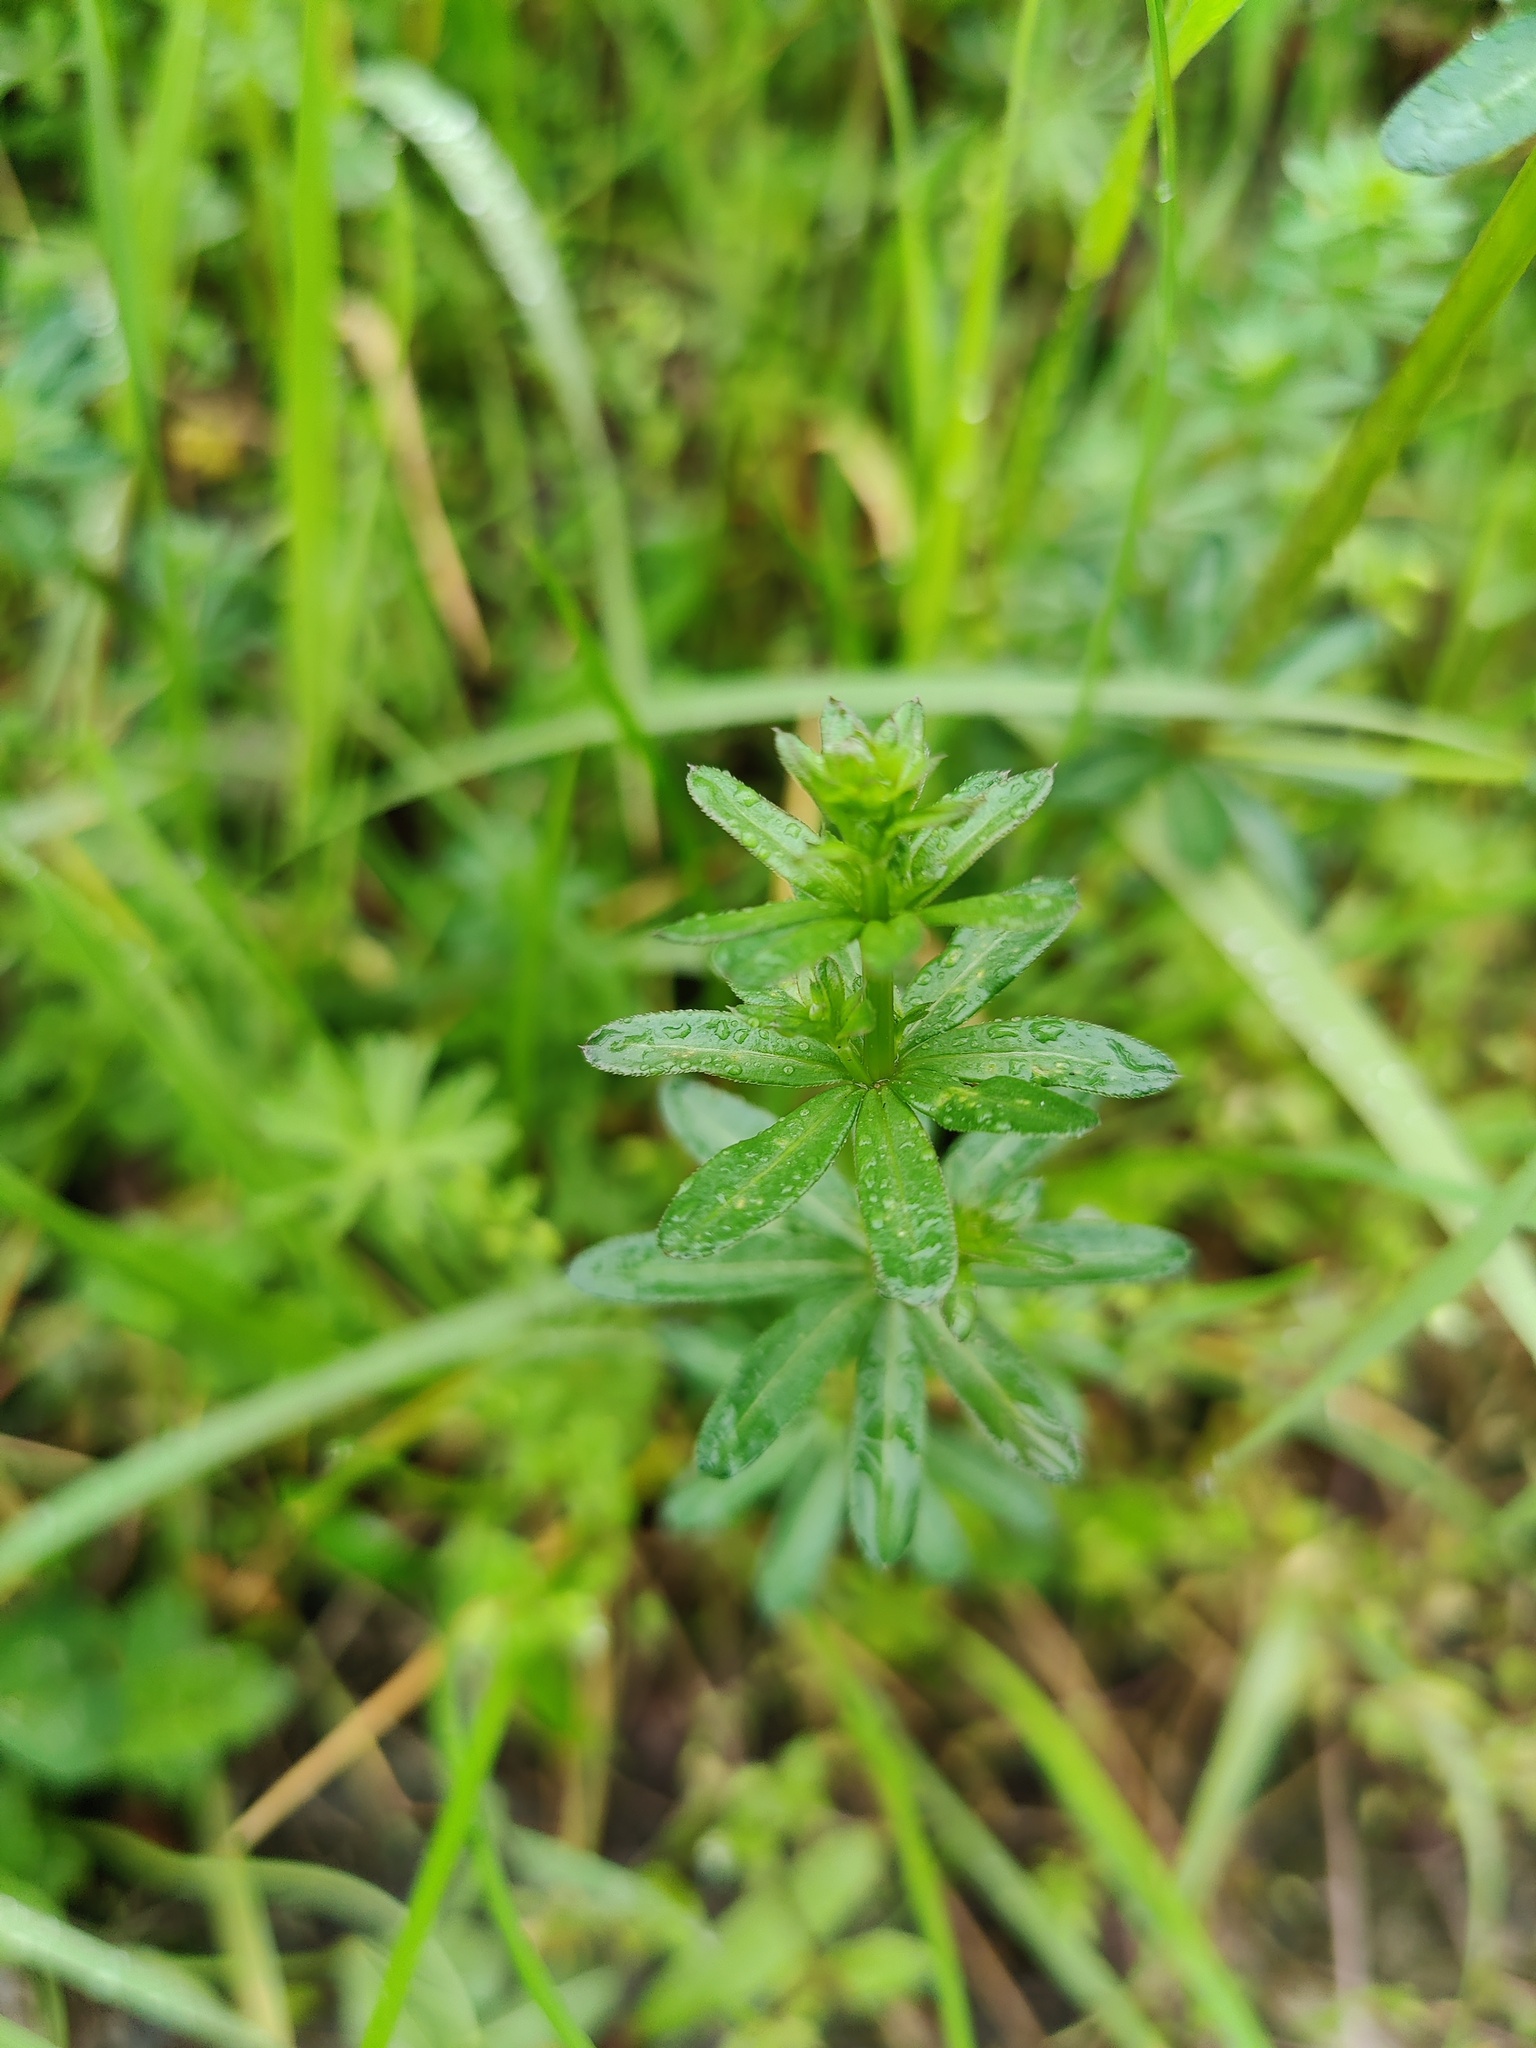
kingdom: Plantae
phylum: Tracheophyta
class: Magnoliopsida
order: Gentianales
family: Rubiaceae
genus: Galium
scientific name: Galium mollugo
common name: Hedge bedstraw
